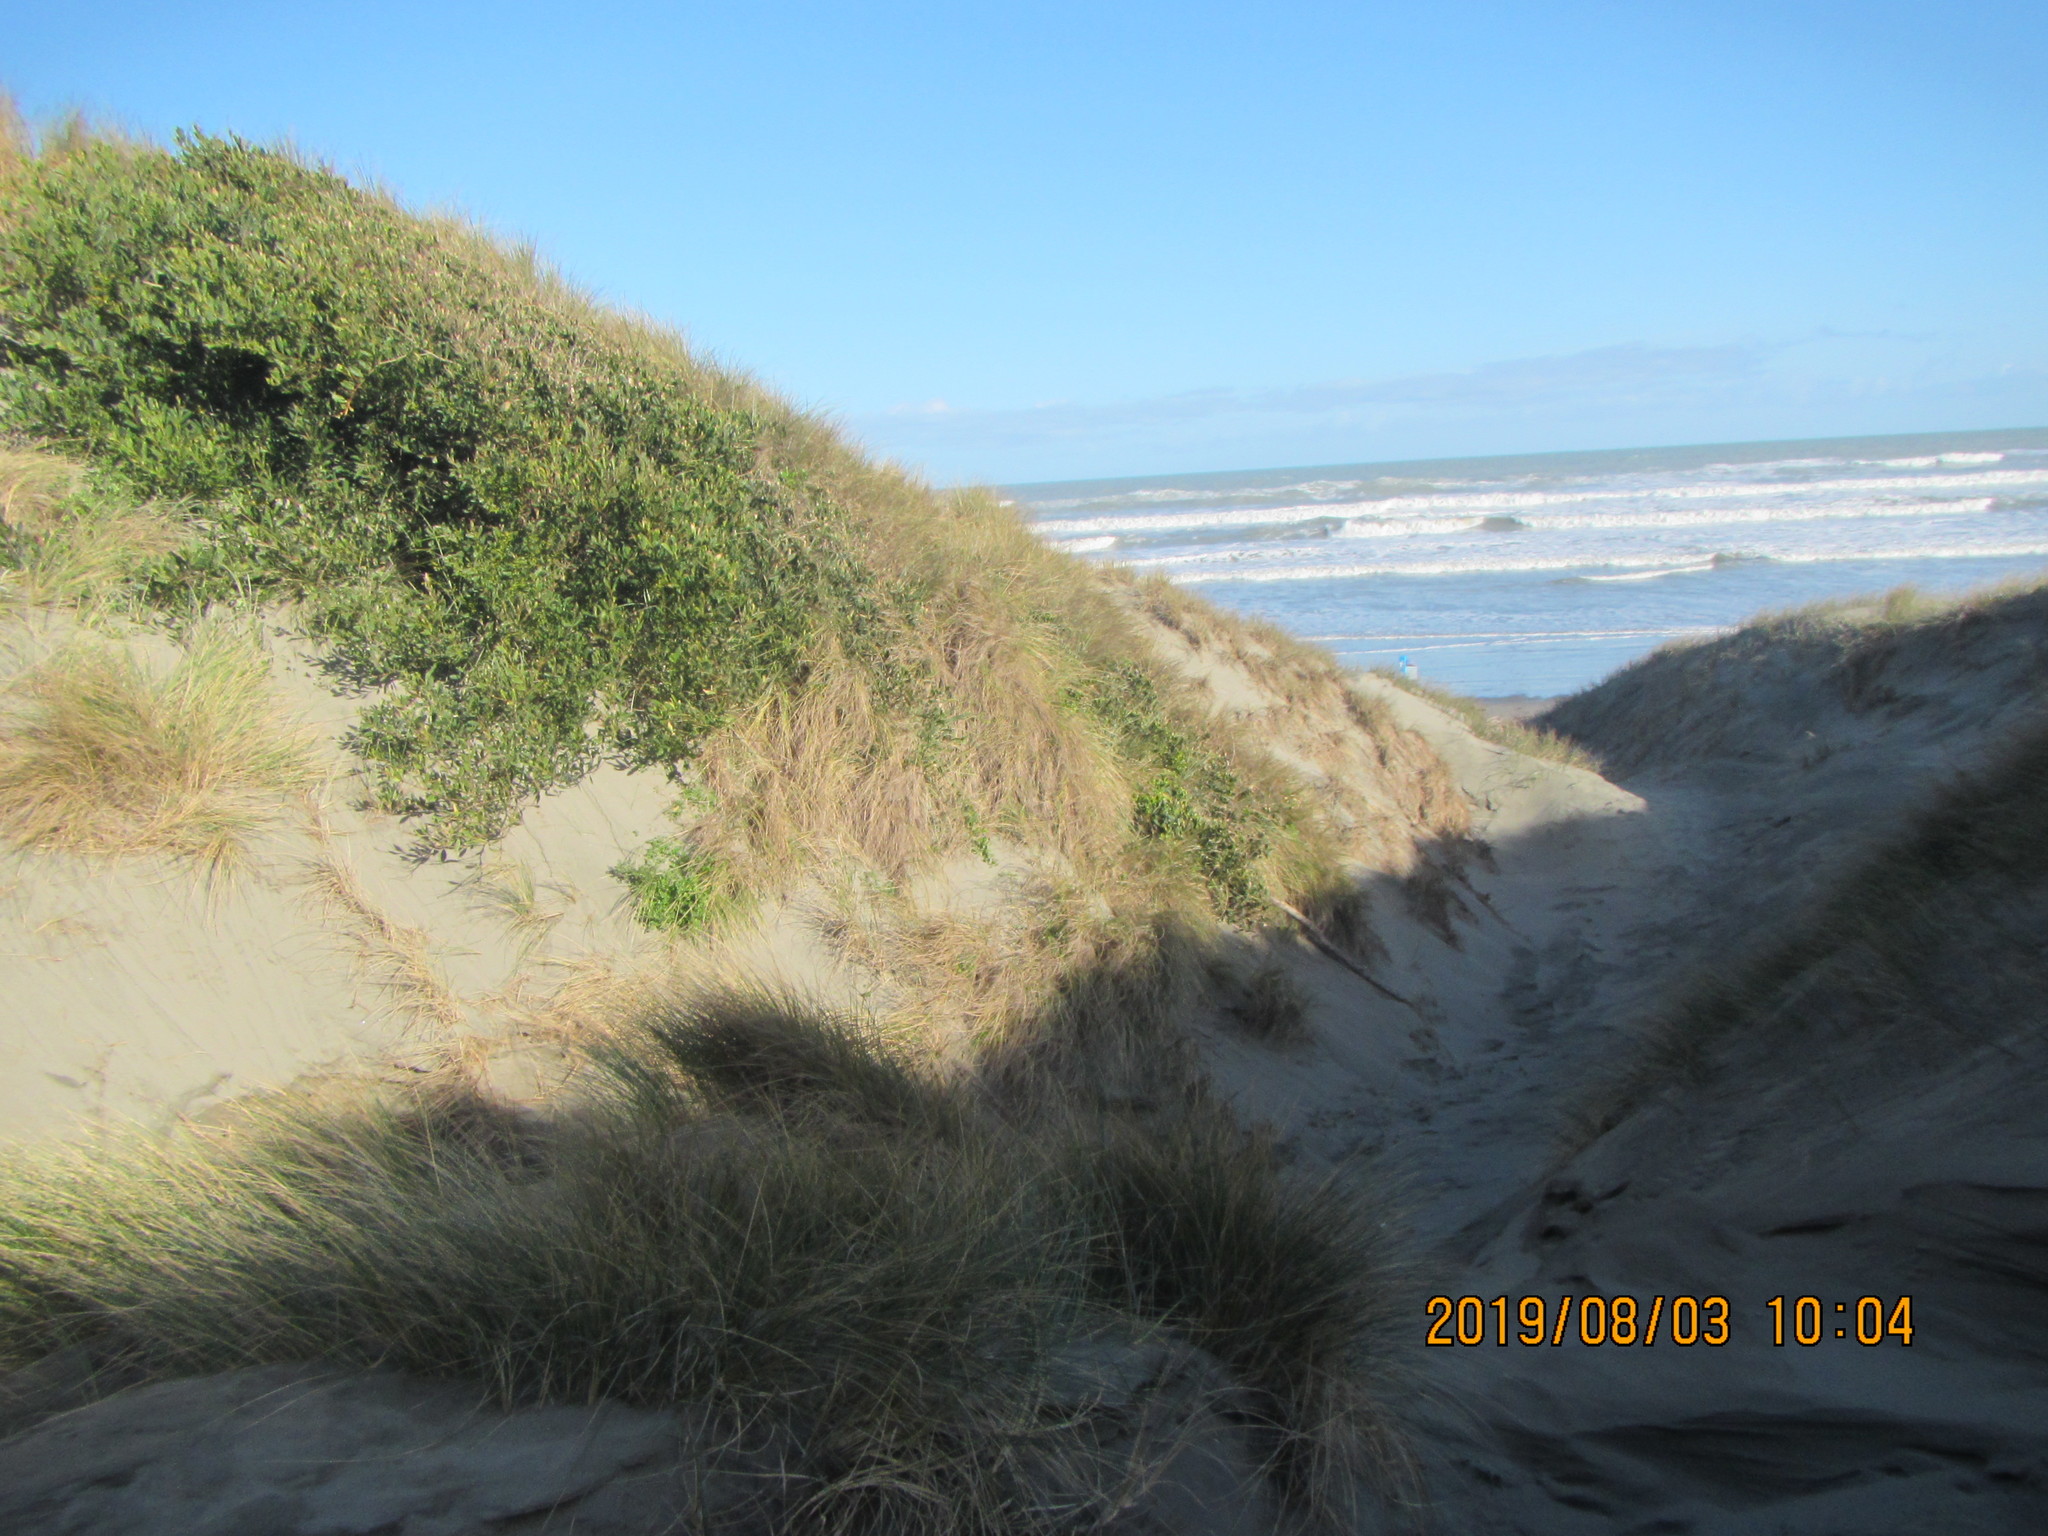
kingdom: Plantae
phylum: Tracheophyta
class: Magnoliopsida
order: Fabales
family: Fabaceae
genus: Acacia
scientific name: Acacia longifolia
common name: Sydney golden wattle
